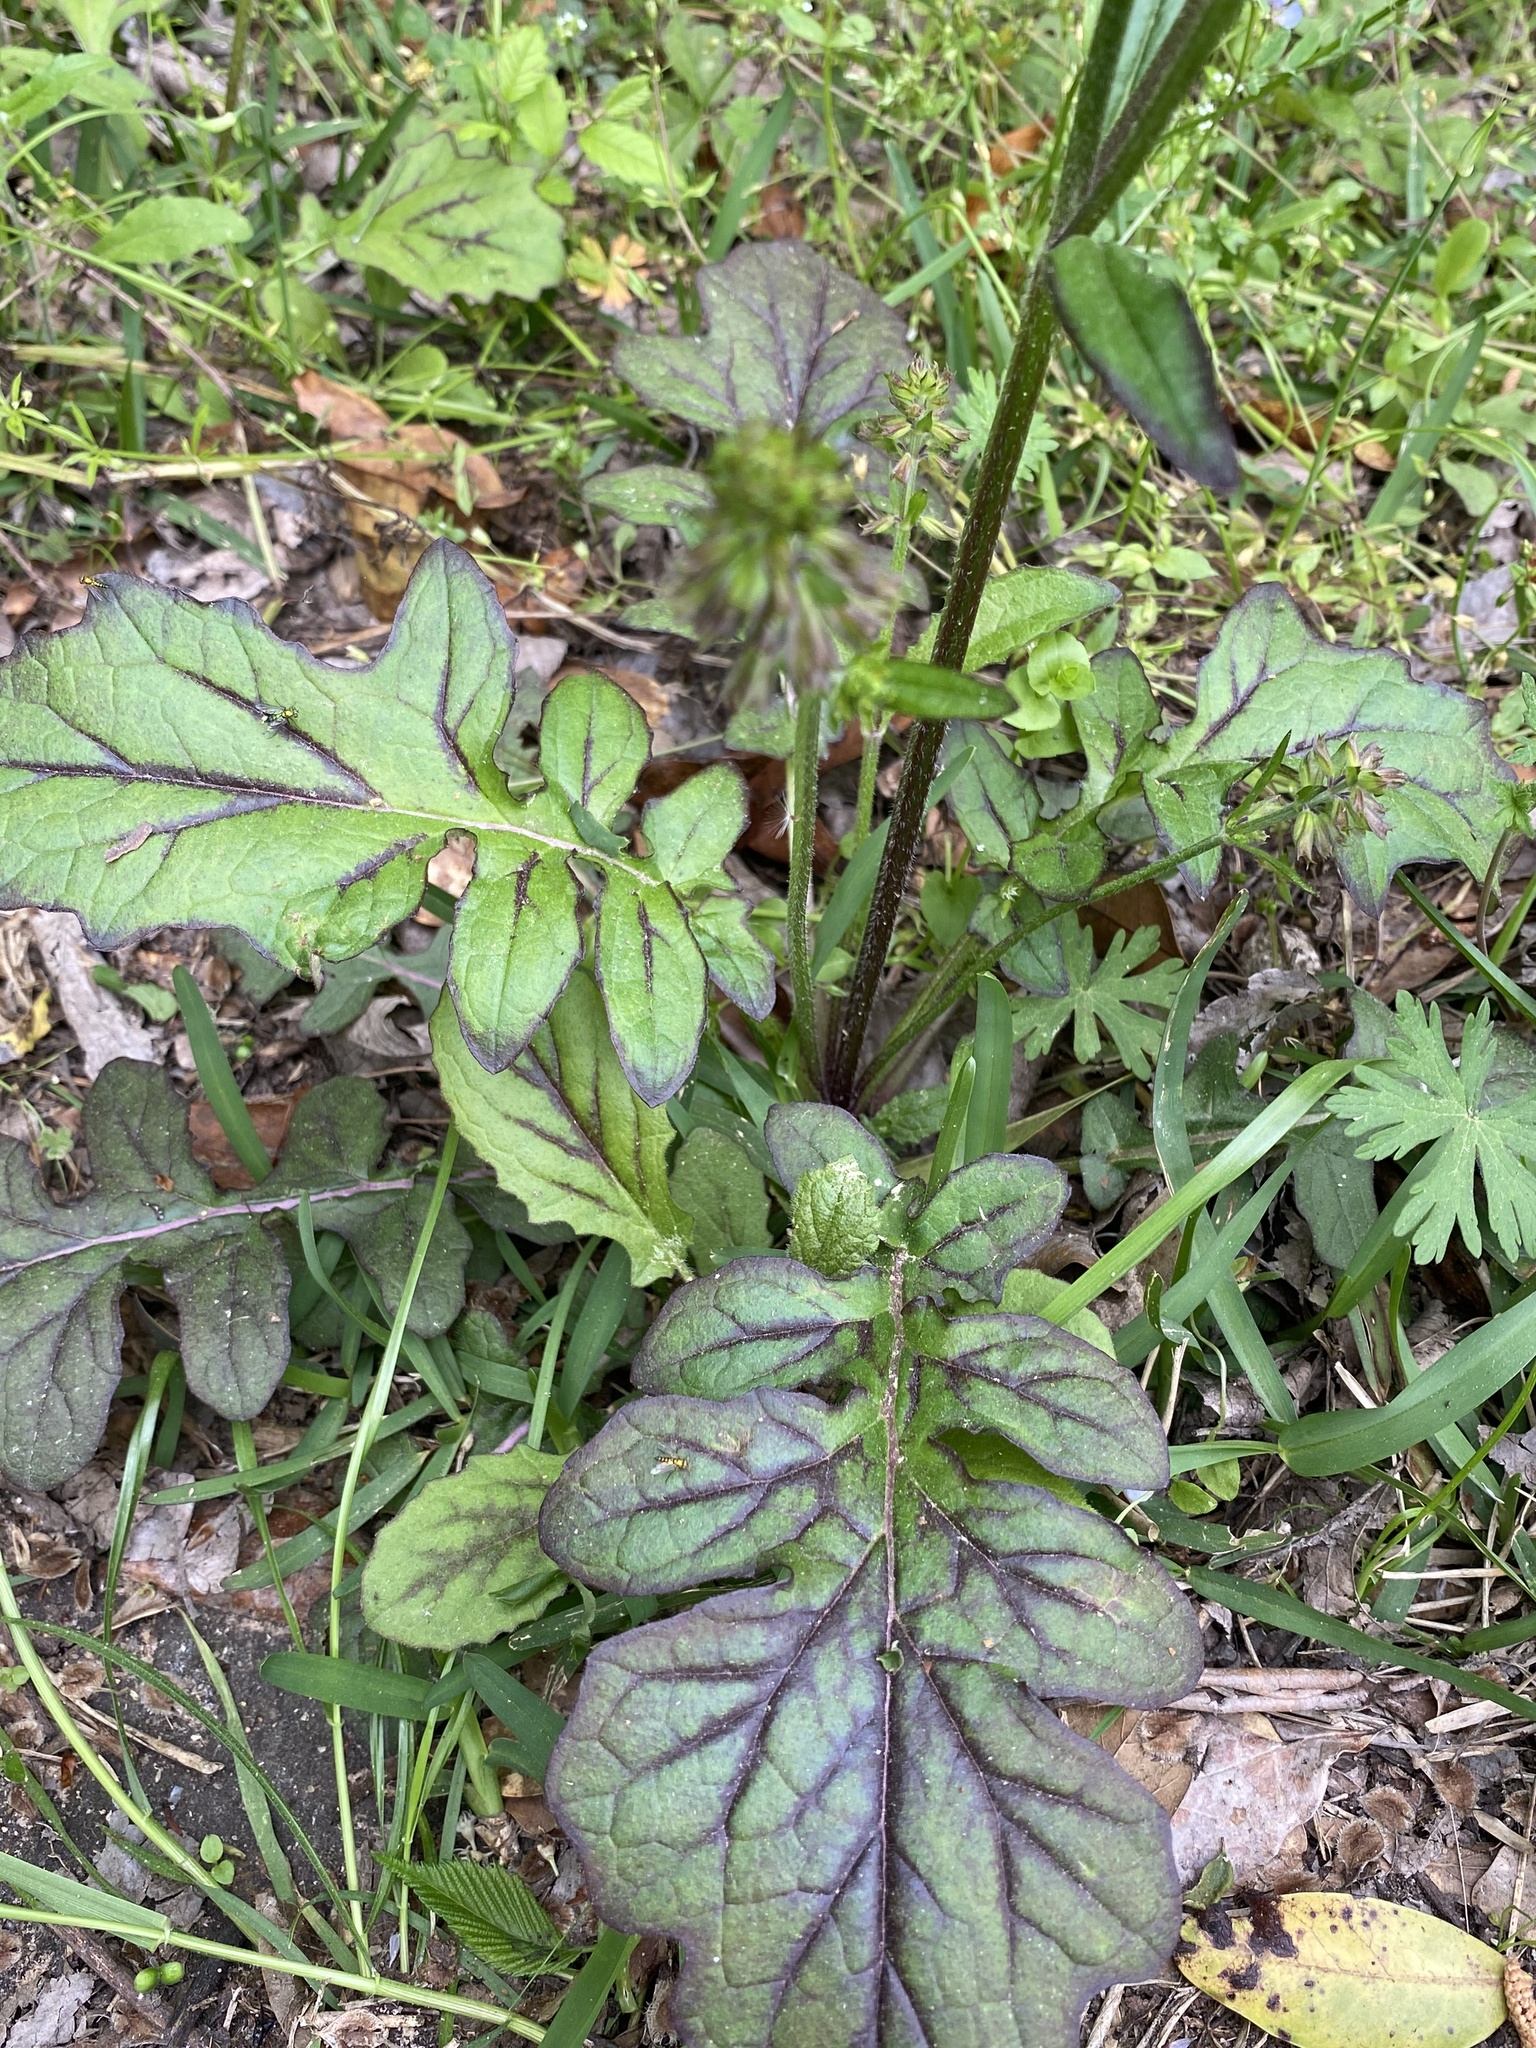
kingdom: Plantae
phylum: Tracheophyta
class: Magnoliopsida
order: Lamiales
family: Lamiaceae
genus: Salvia
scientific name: Salvia lyrata
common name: Cancerweed
